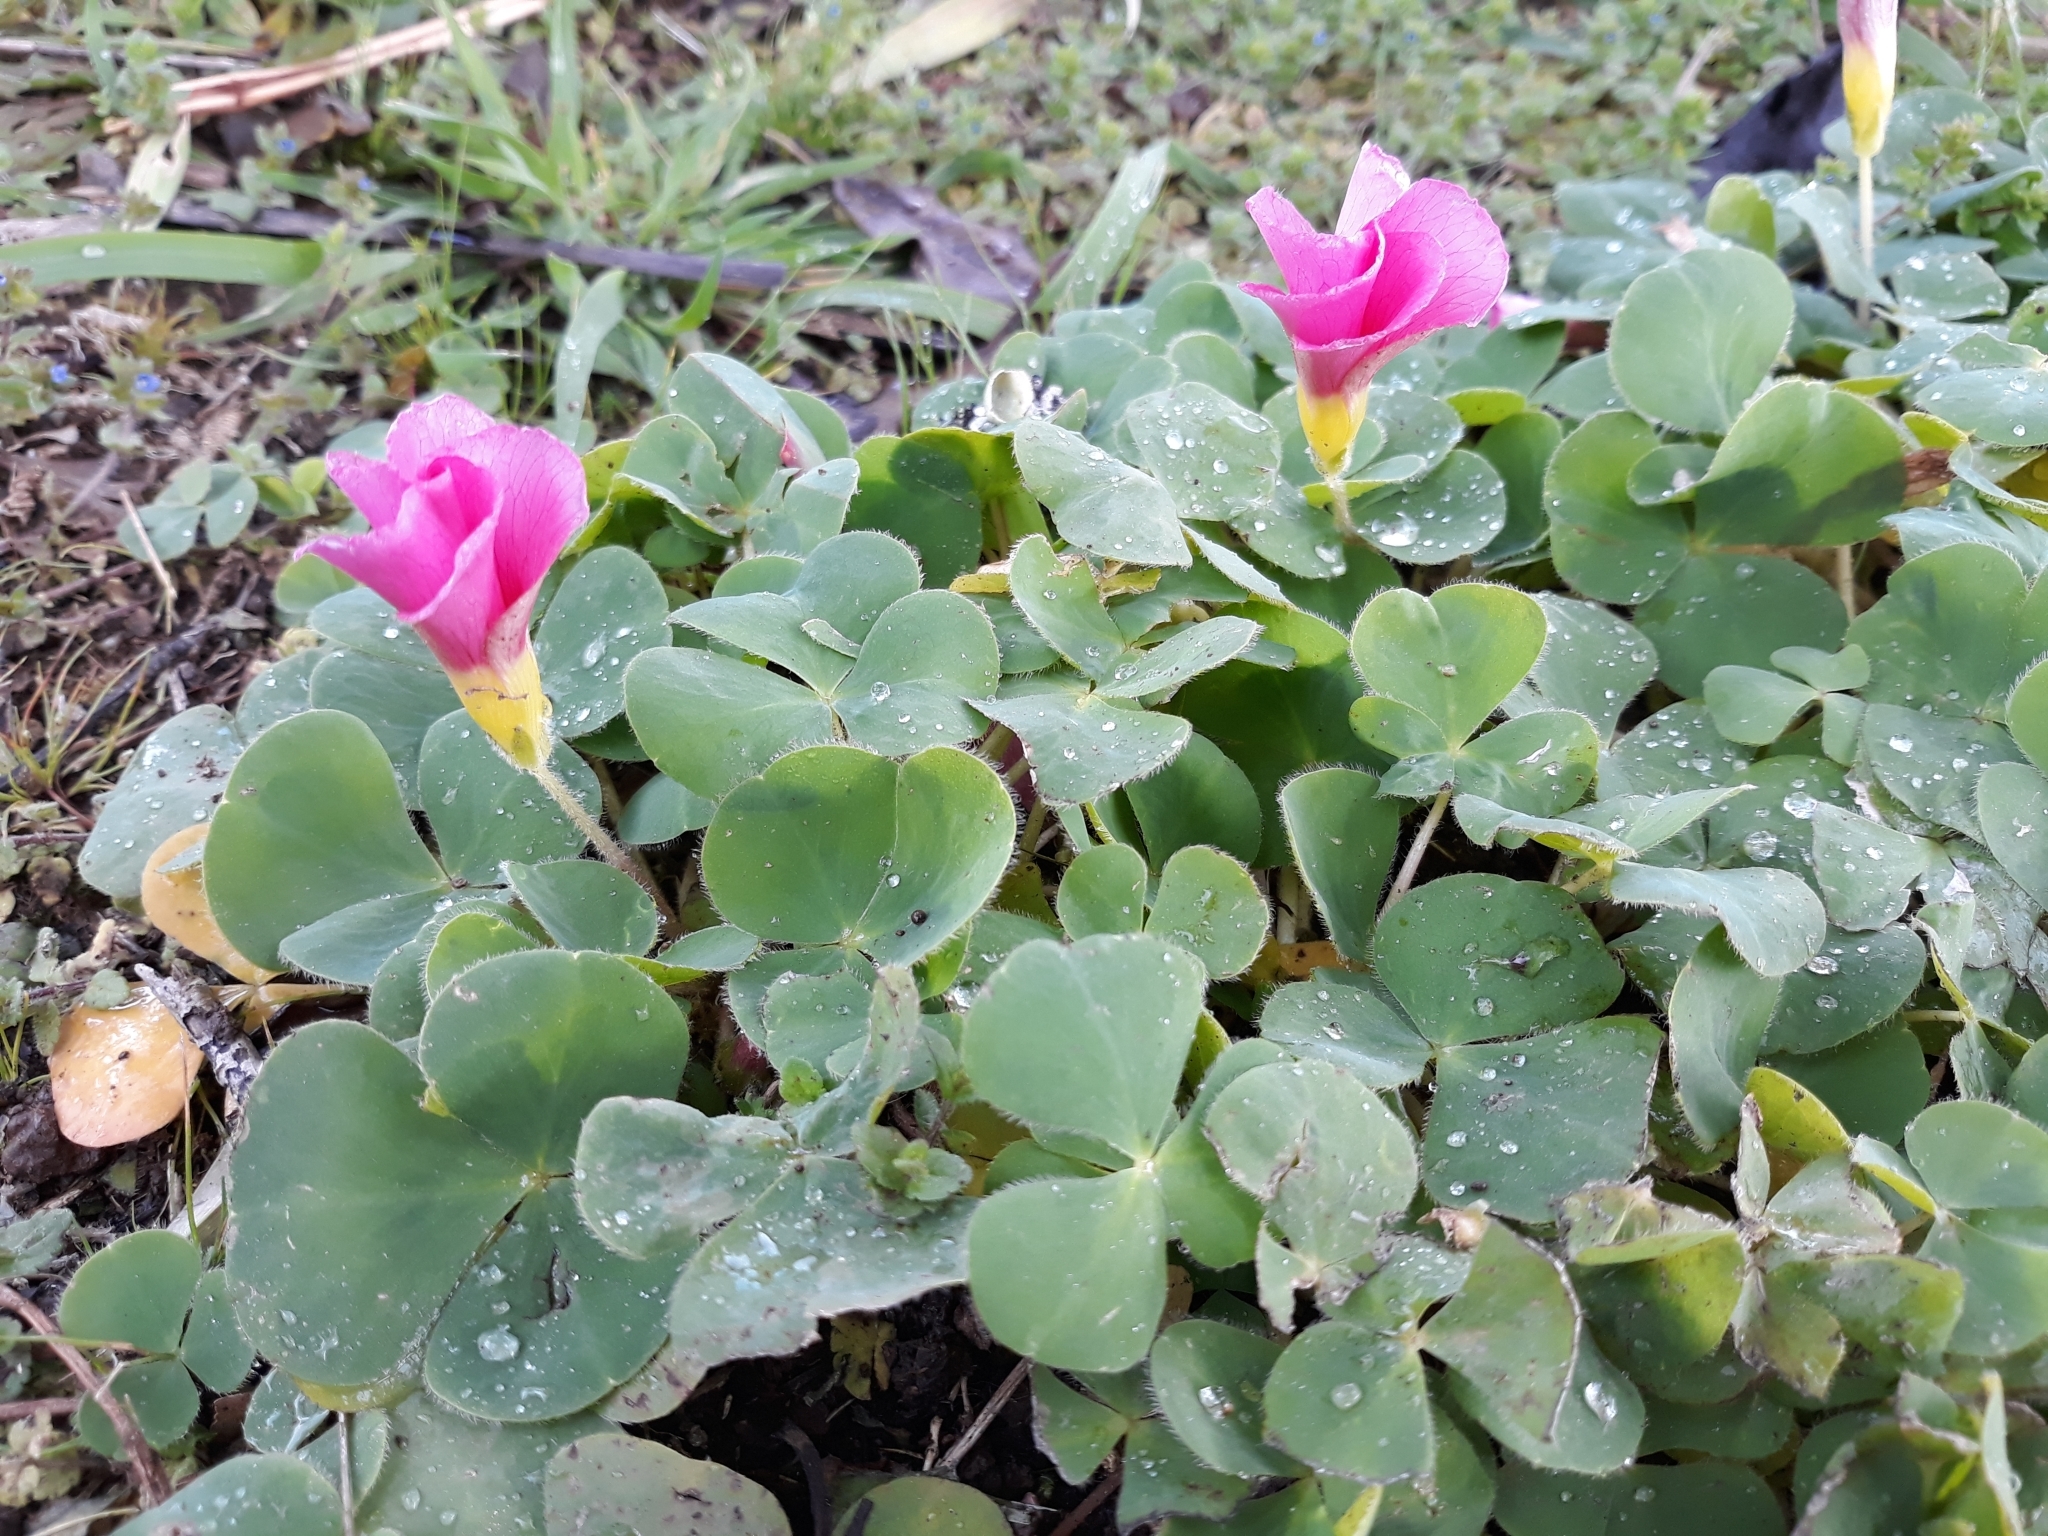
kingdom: Plantae
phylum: Tracheophyta
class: Magnoliopsida
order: Oxalidales
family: Oxalidaceae
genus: Oxalis
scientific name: Oxalis purpurea
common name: Purple woodsorrel
